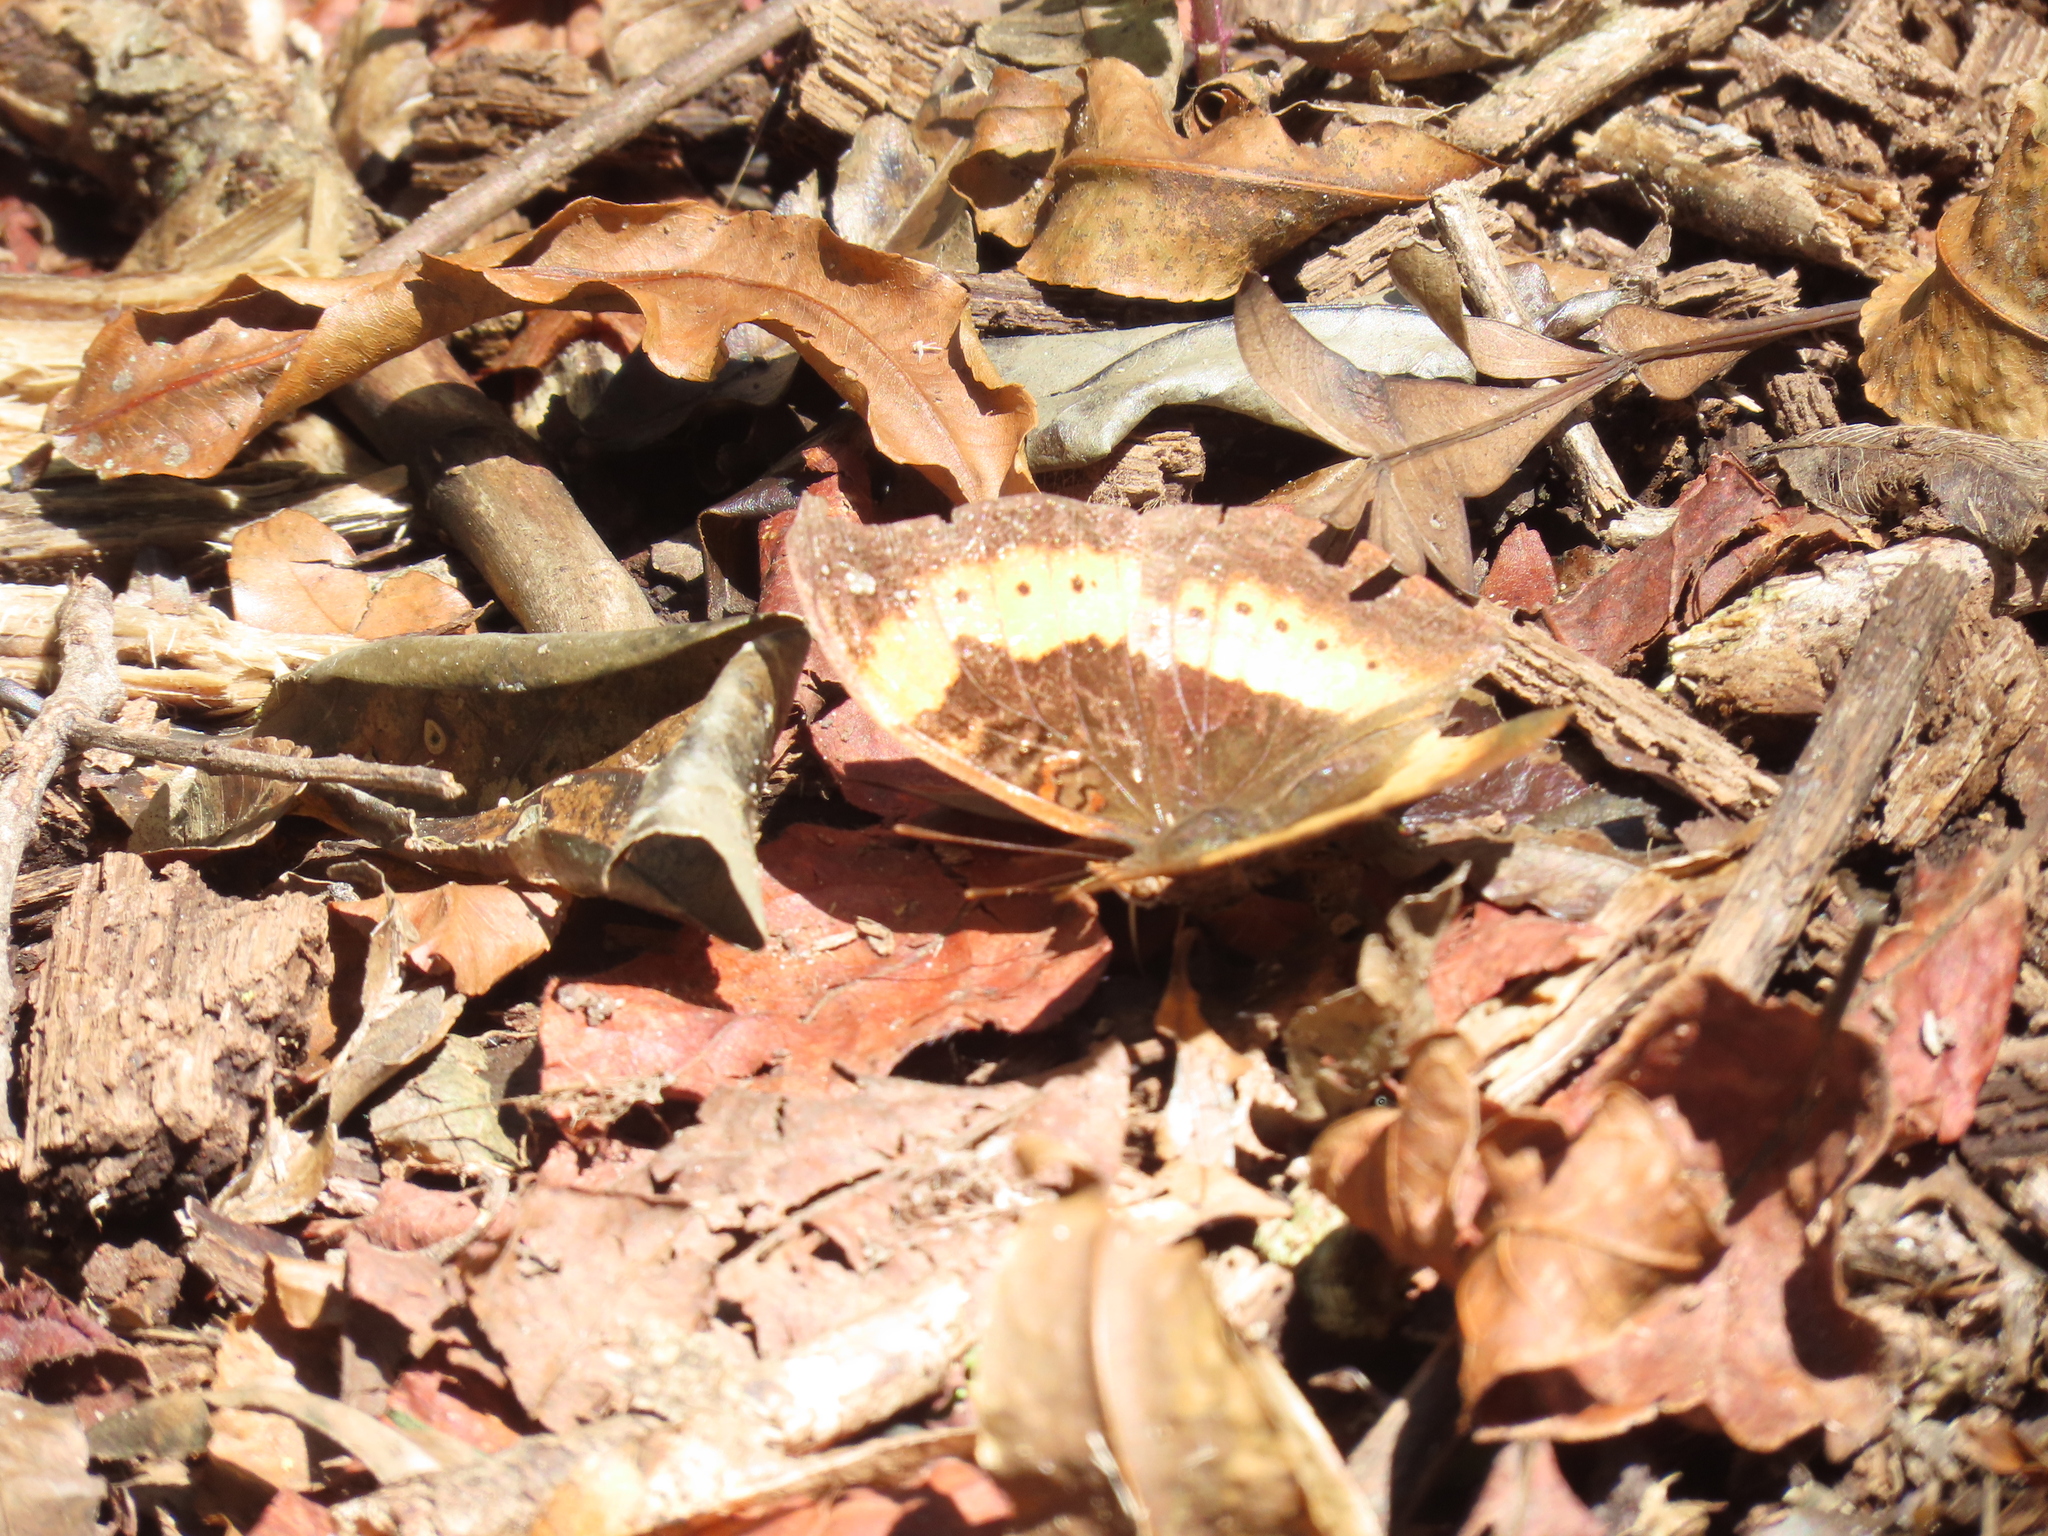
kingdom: Animalia
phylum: Arthropoda
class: Insecta
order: Lepidoptera
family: Nymphalidae
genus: Junonia
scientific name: Junonia tugela
